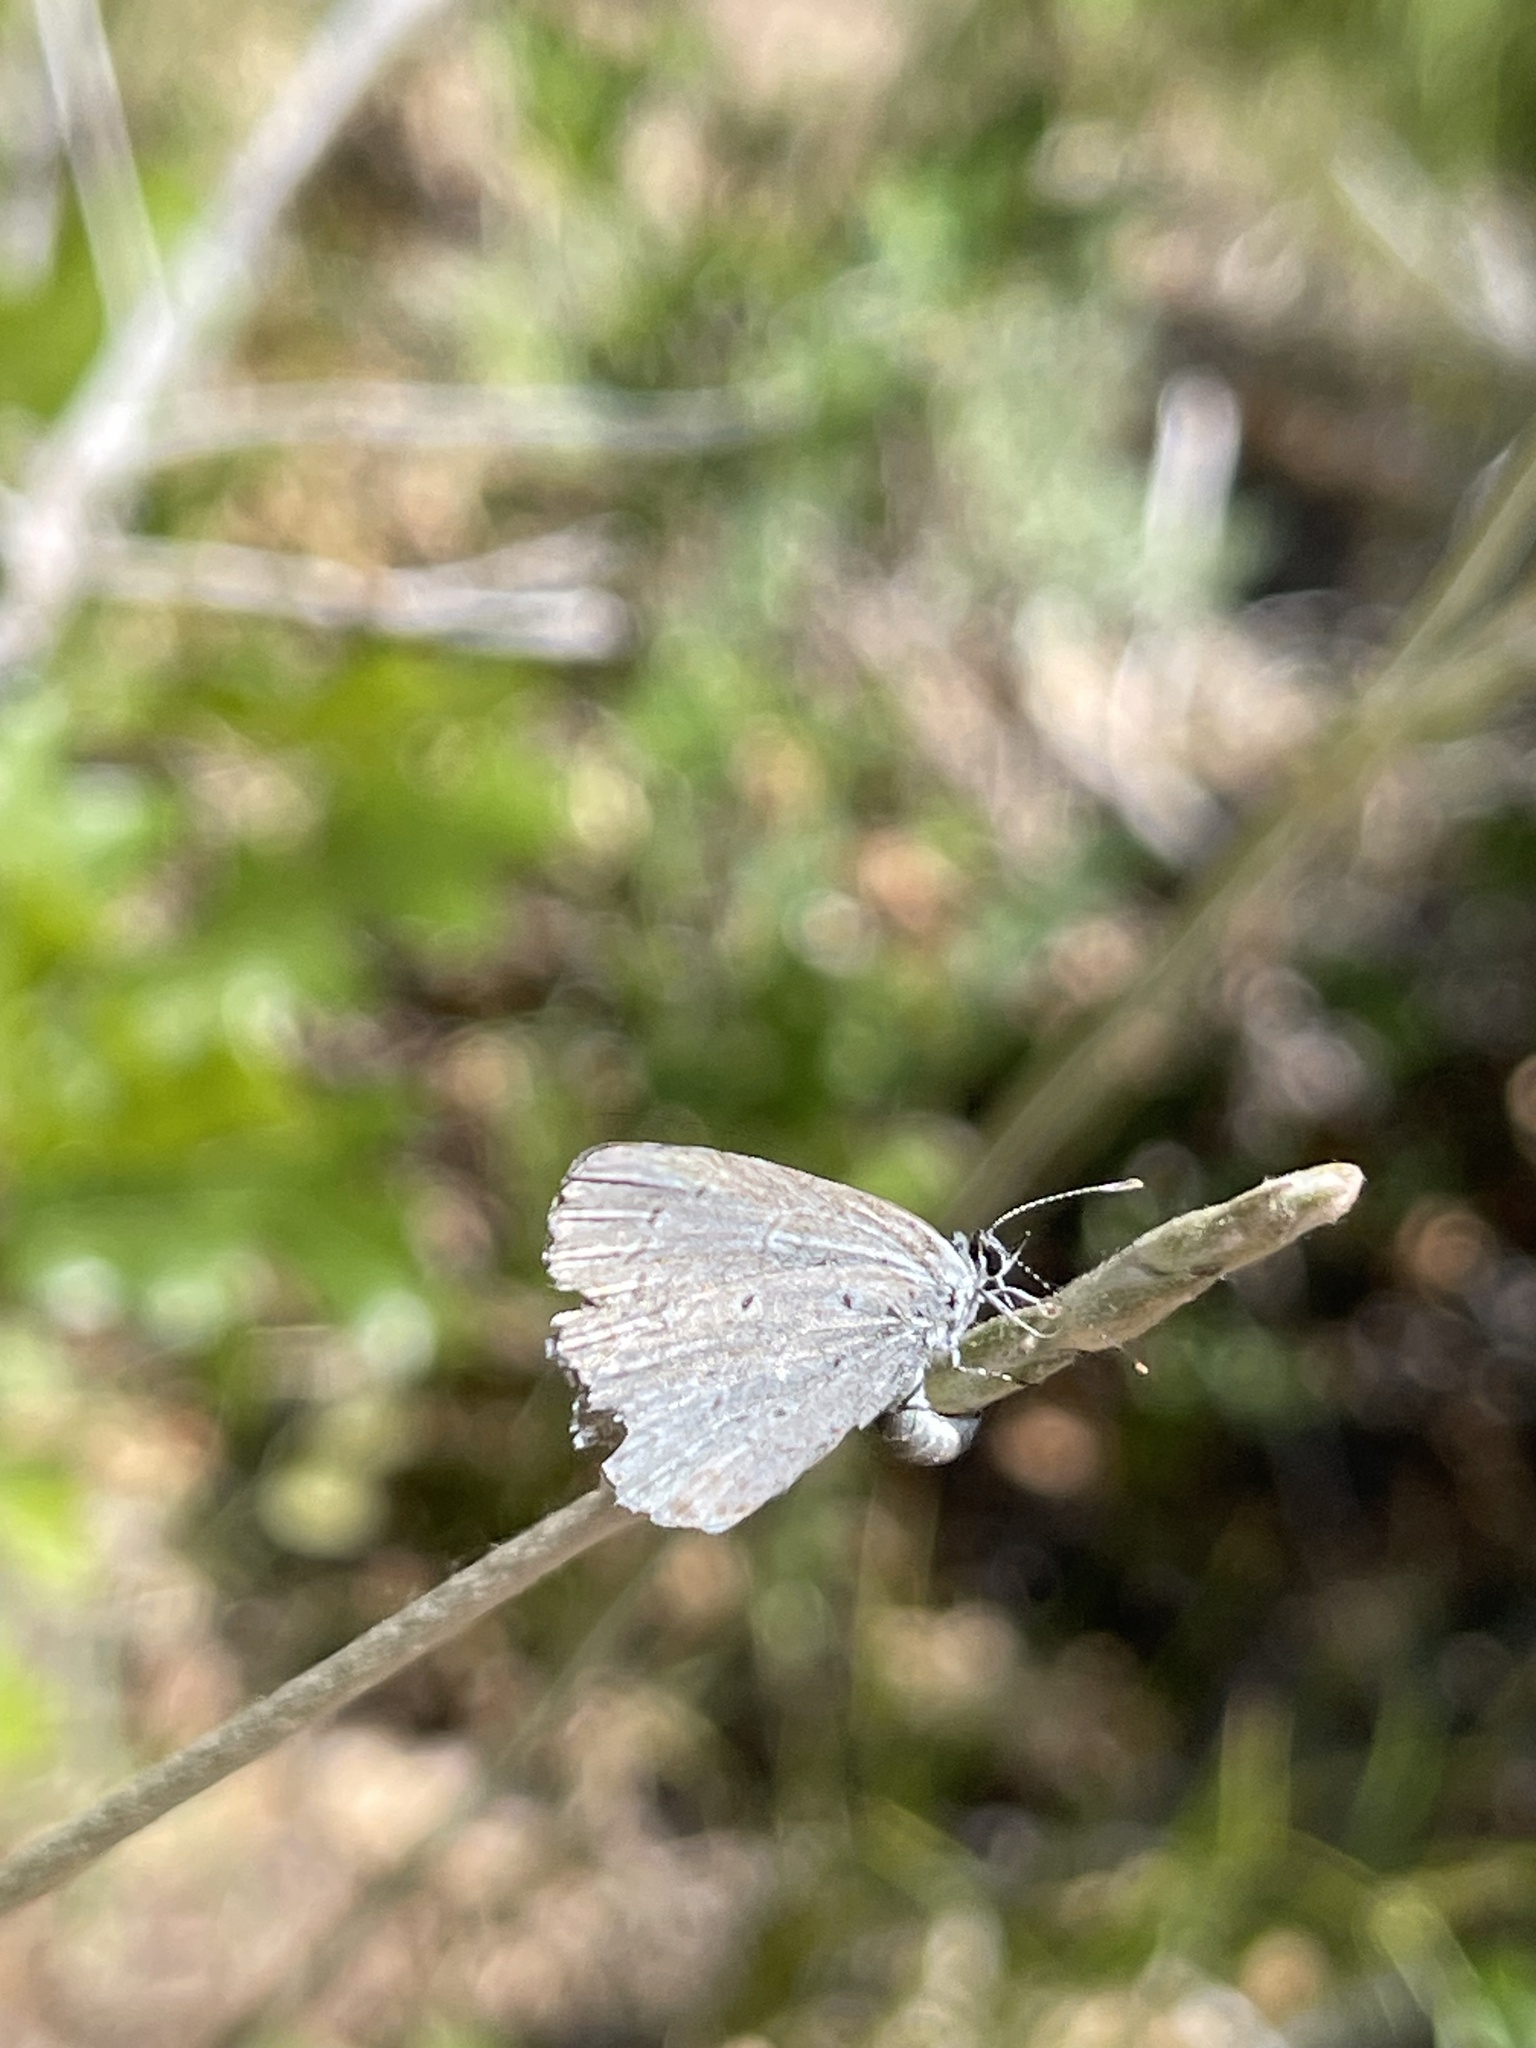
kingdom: Animalia
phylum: Arthropoda
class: Insecta
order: Lepidoptera
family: Lycaenidae
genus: Celastrina
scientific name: Celastrina argiolus
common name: Holly blue
